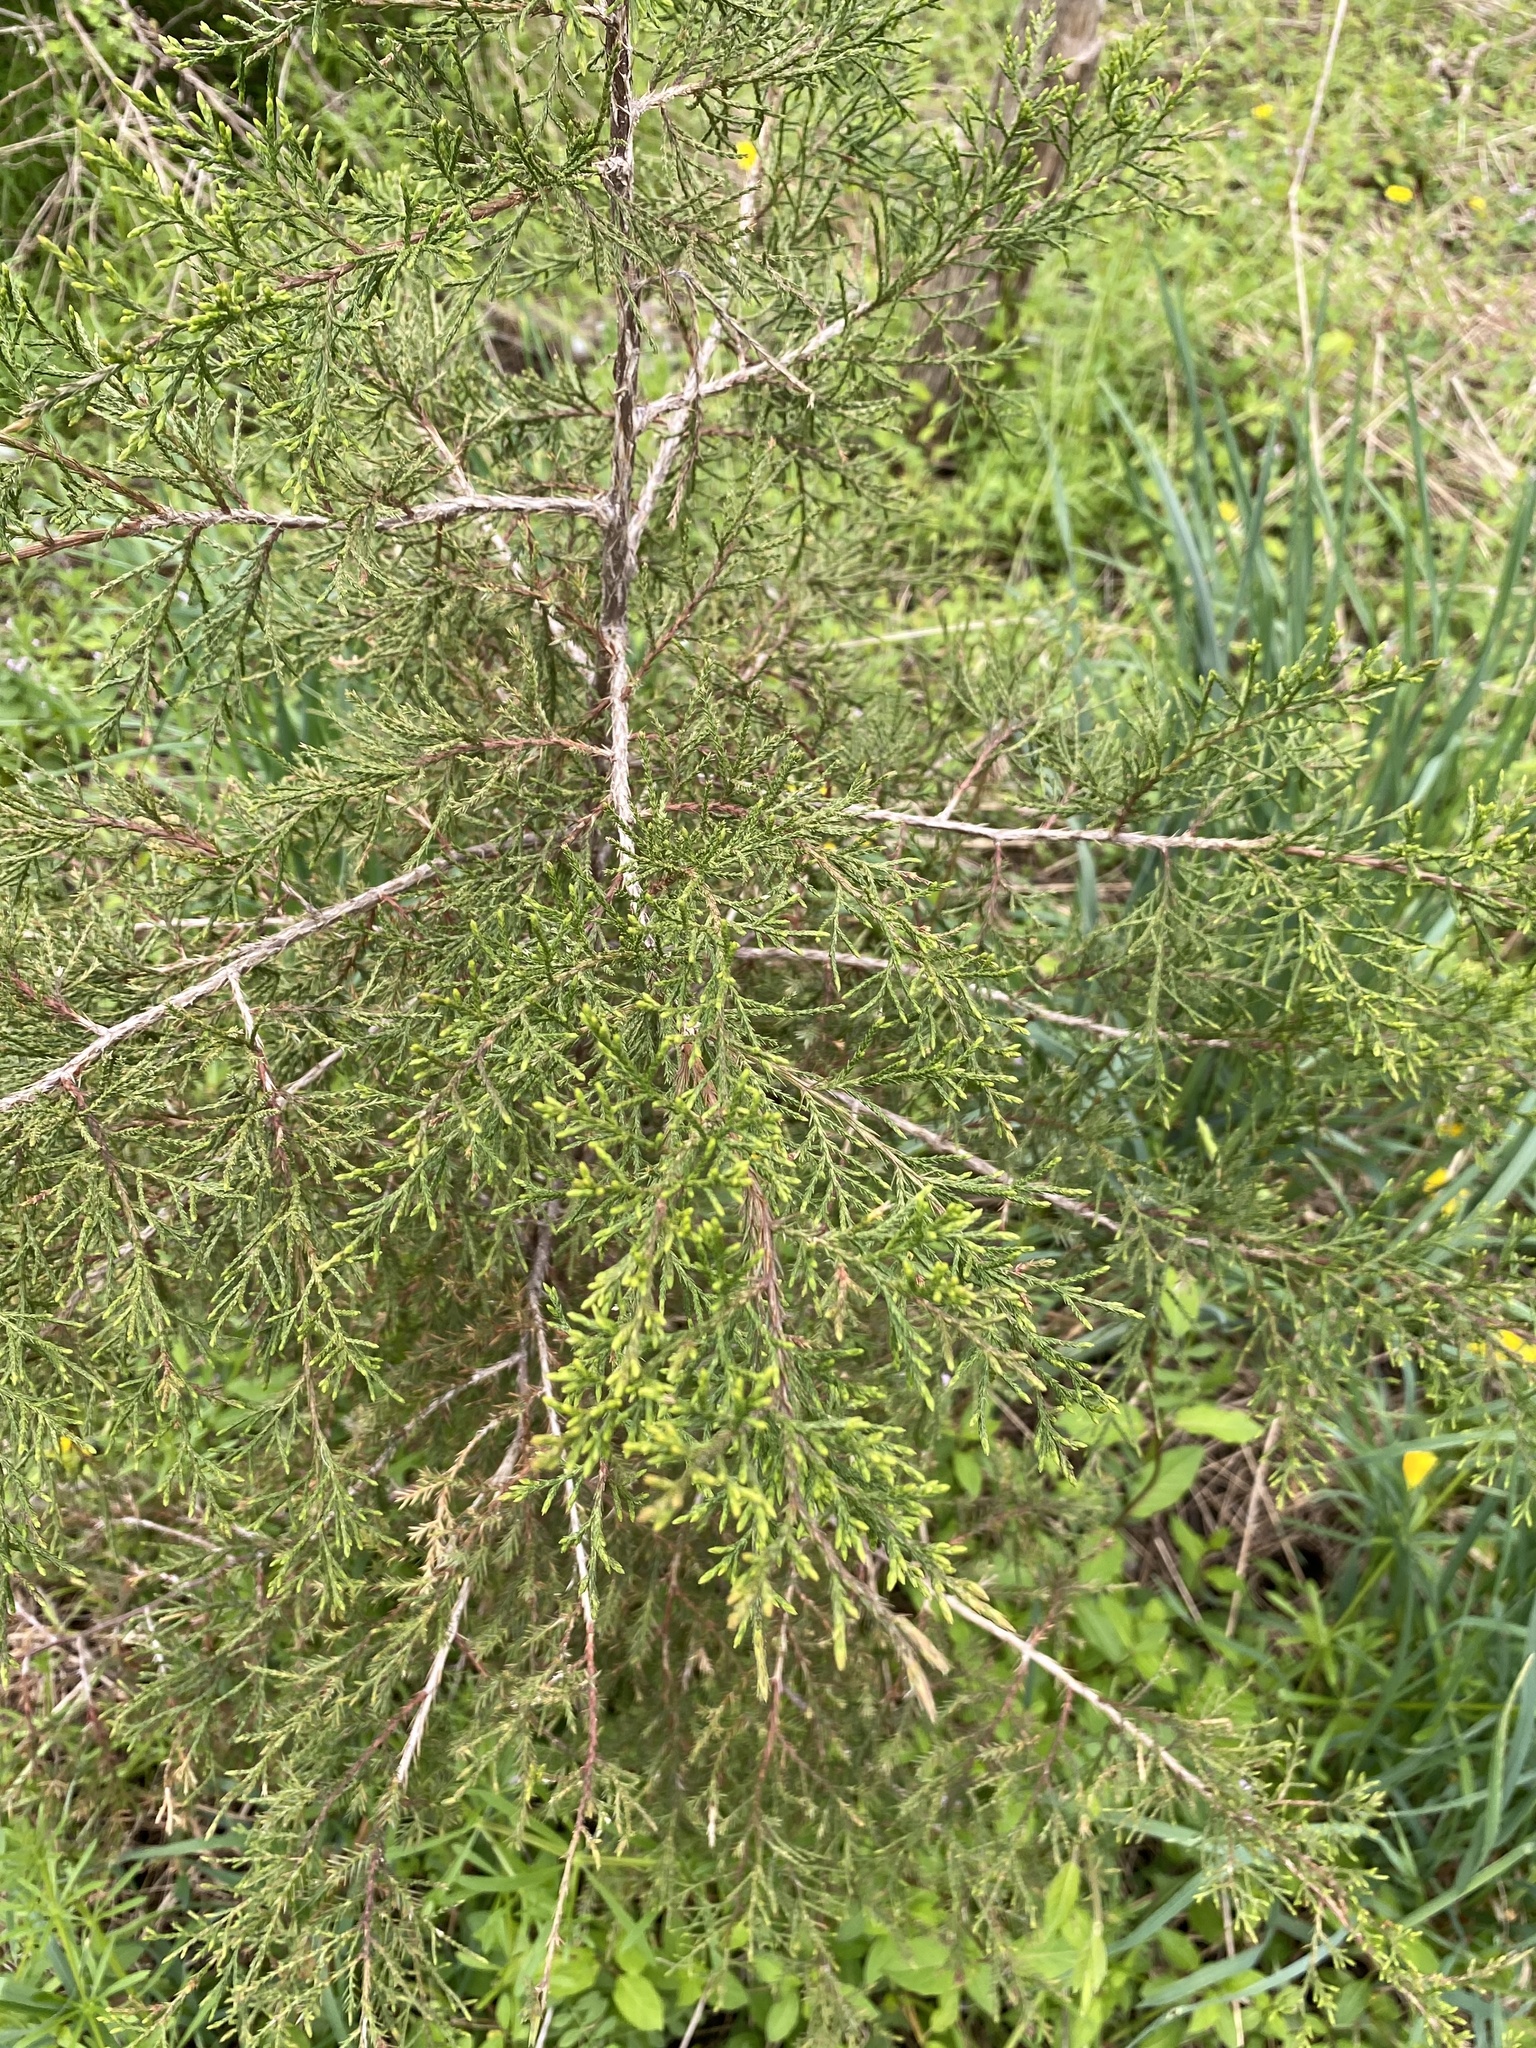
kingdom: Plantae
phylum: Tracheophyta
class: Pinopsida
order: Pinales
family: Cupressaceae
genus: Juniperus
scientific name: Juniperus virginiana
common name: Red juniper
